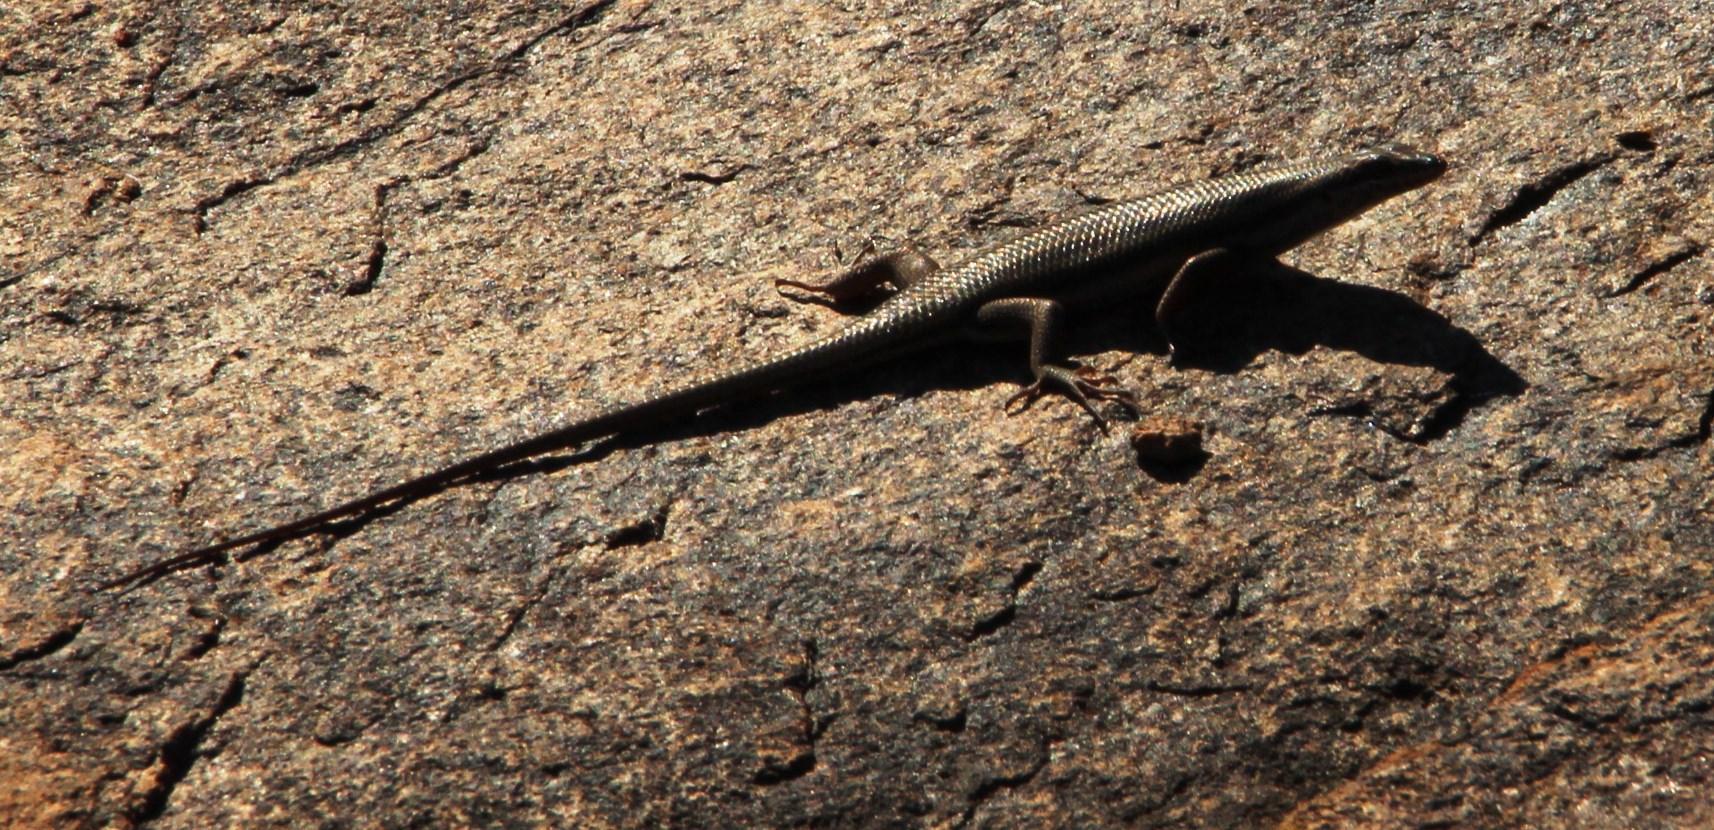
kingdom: Animalia
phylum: Chordata
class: Squamata
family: Scincidae
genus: Trachylepis
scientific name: Trachylepis sulcata
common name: Western rock skink
